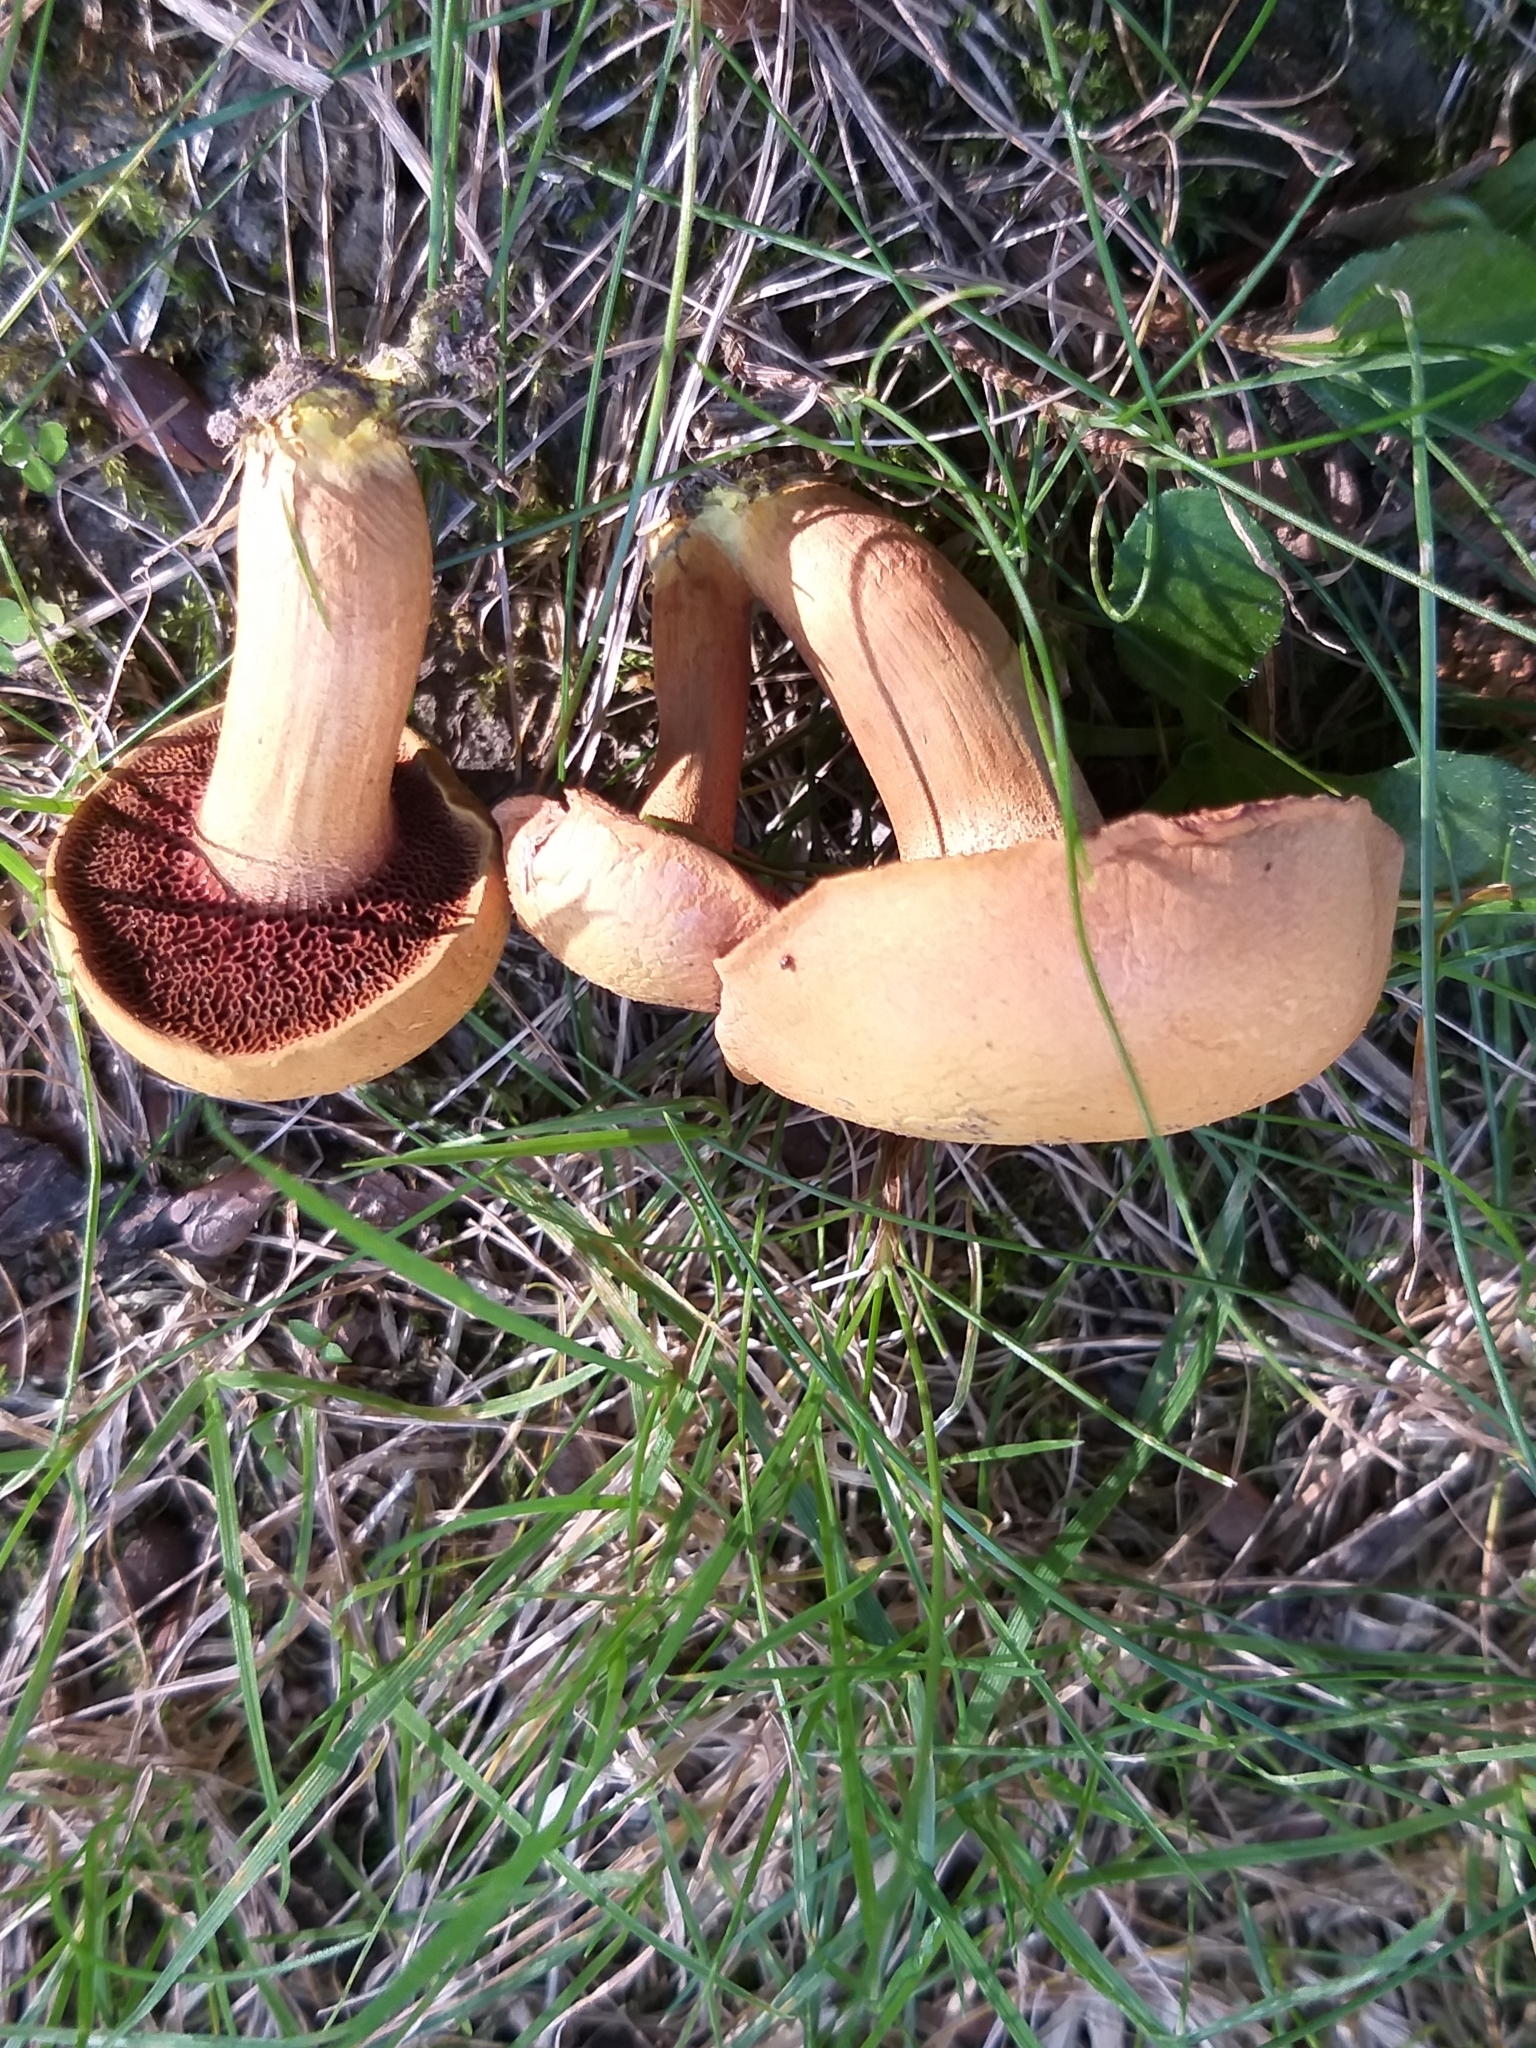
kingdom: Fungi
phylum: Basidiomycota
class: Agaricomycetes
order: Boletales
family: Boletaceae
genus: Chalciporus
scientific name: Chalciporus piperatus
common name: Peppery bolete
